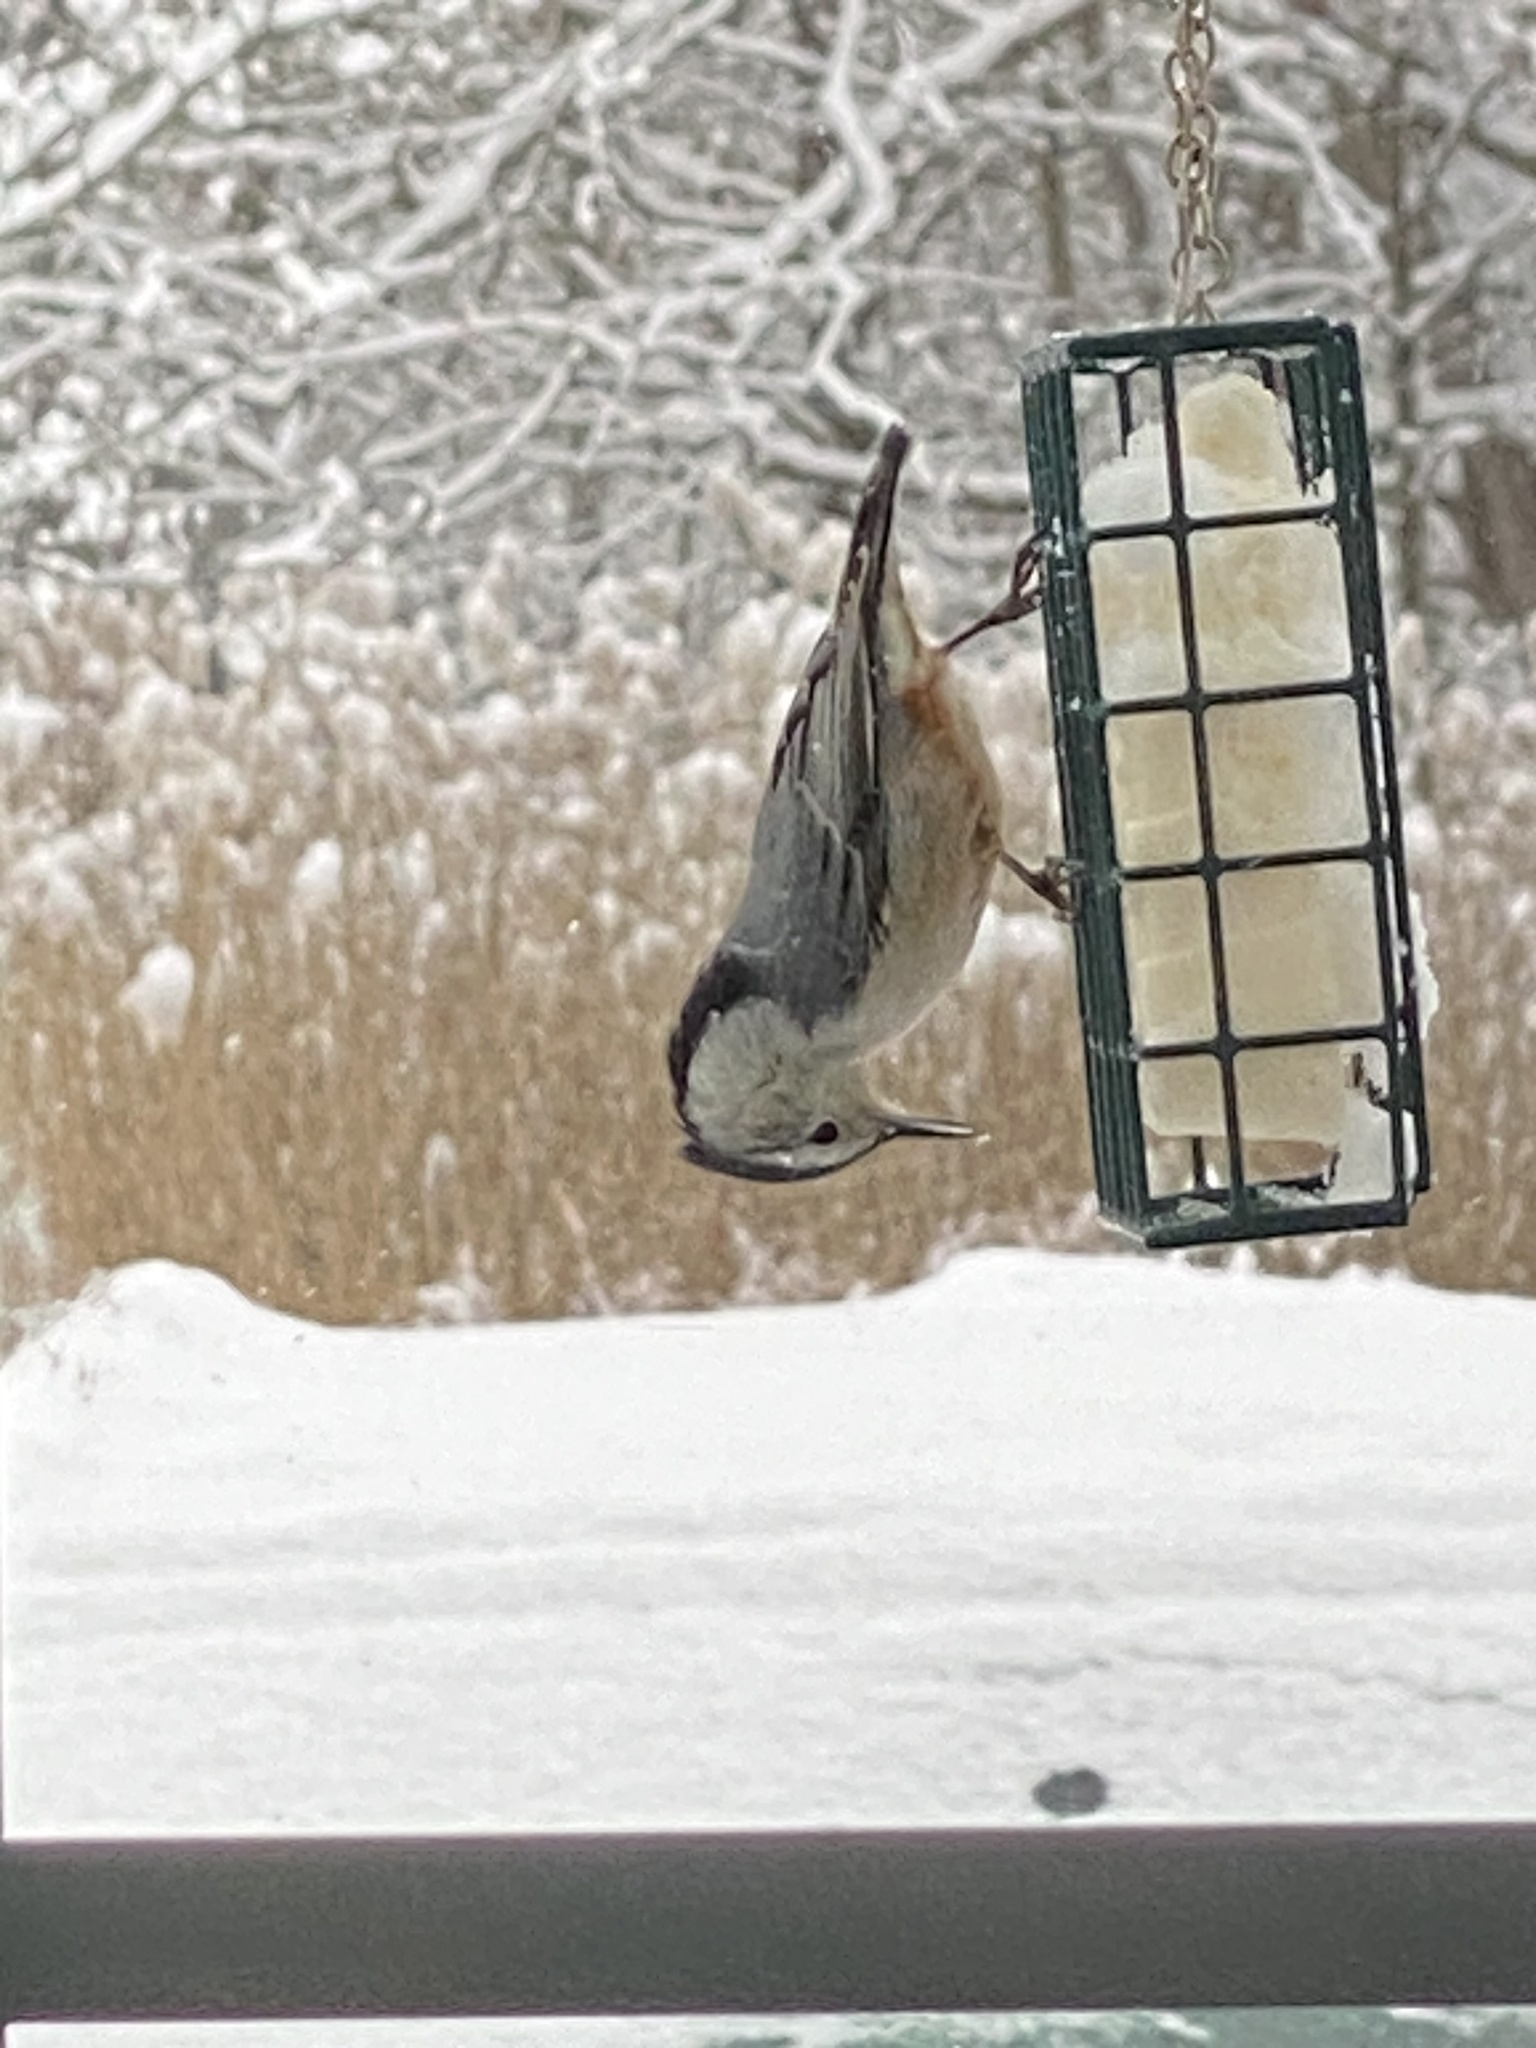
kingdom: Animalia
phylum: Chordata
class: Aves
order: Passeriformes
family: Sittidae
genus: Sitta
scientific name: Sitta carolinensis
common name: White-breasted nuthatch
